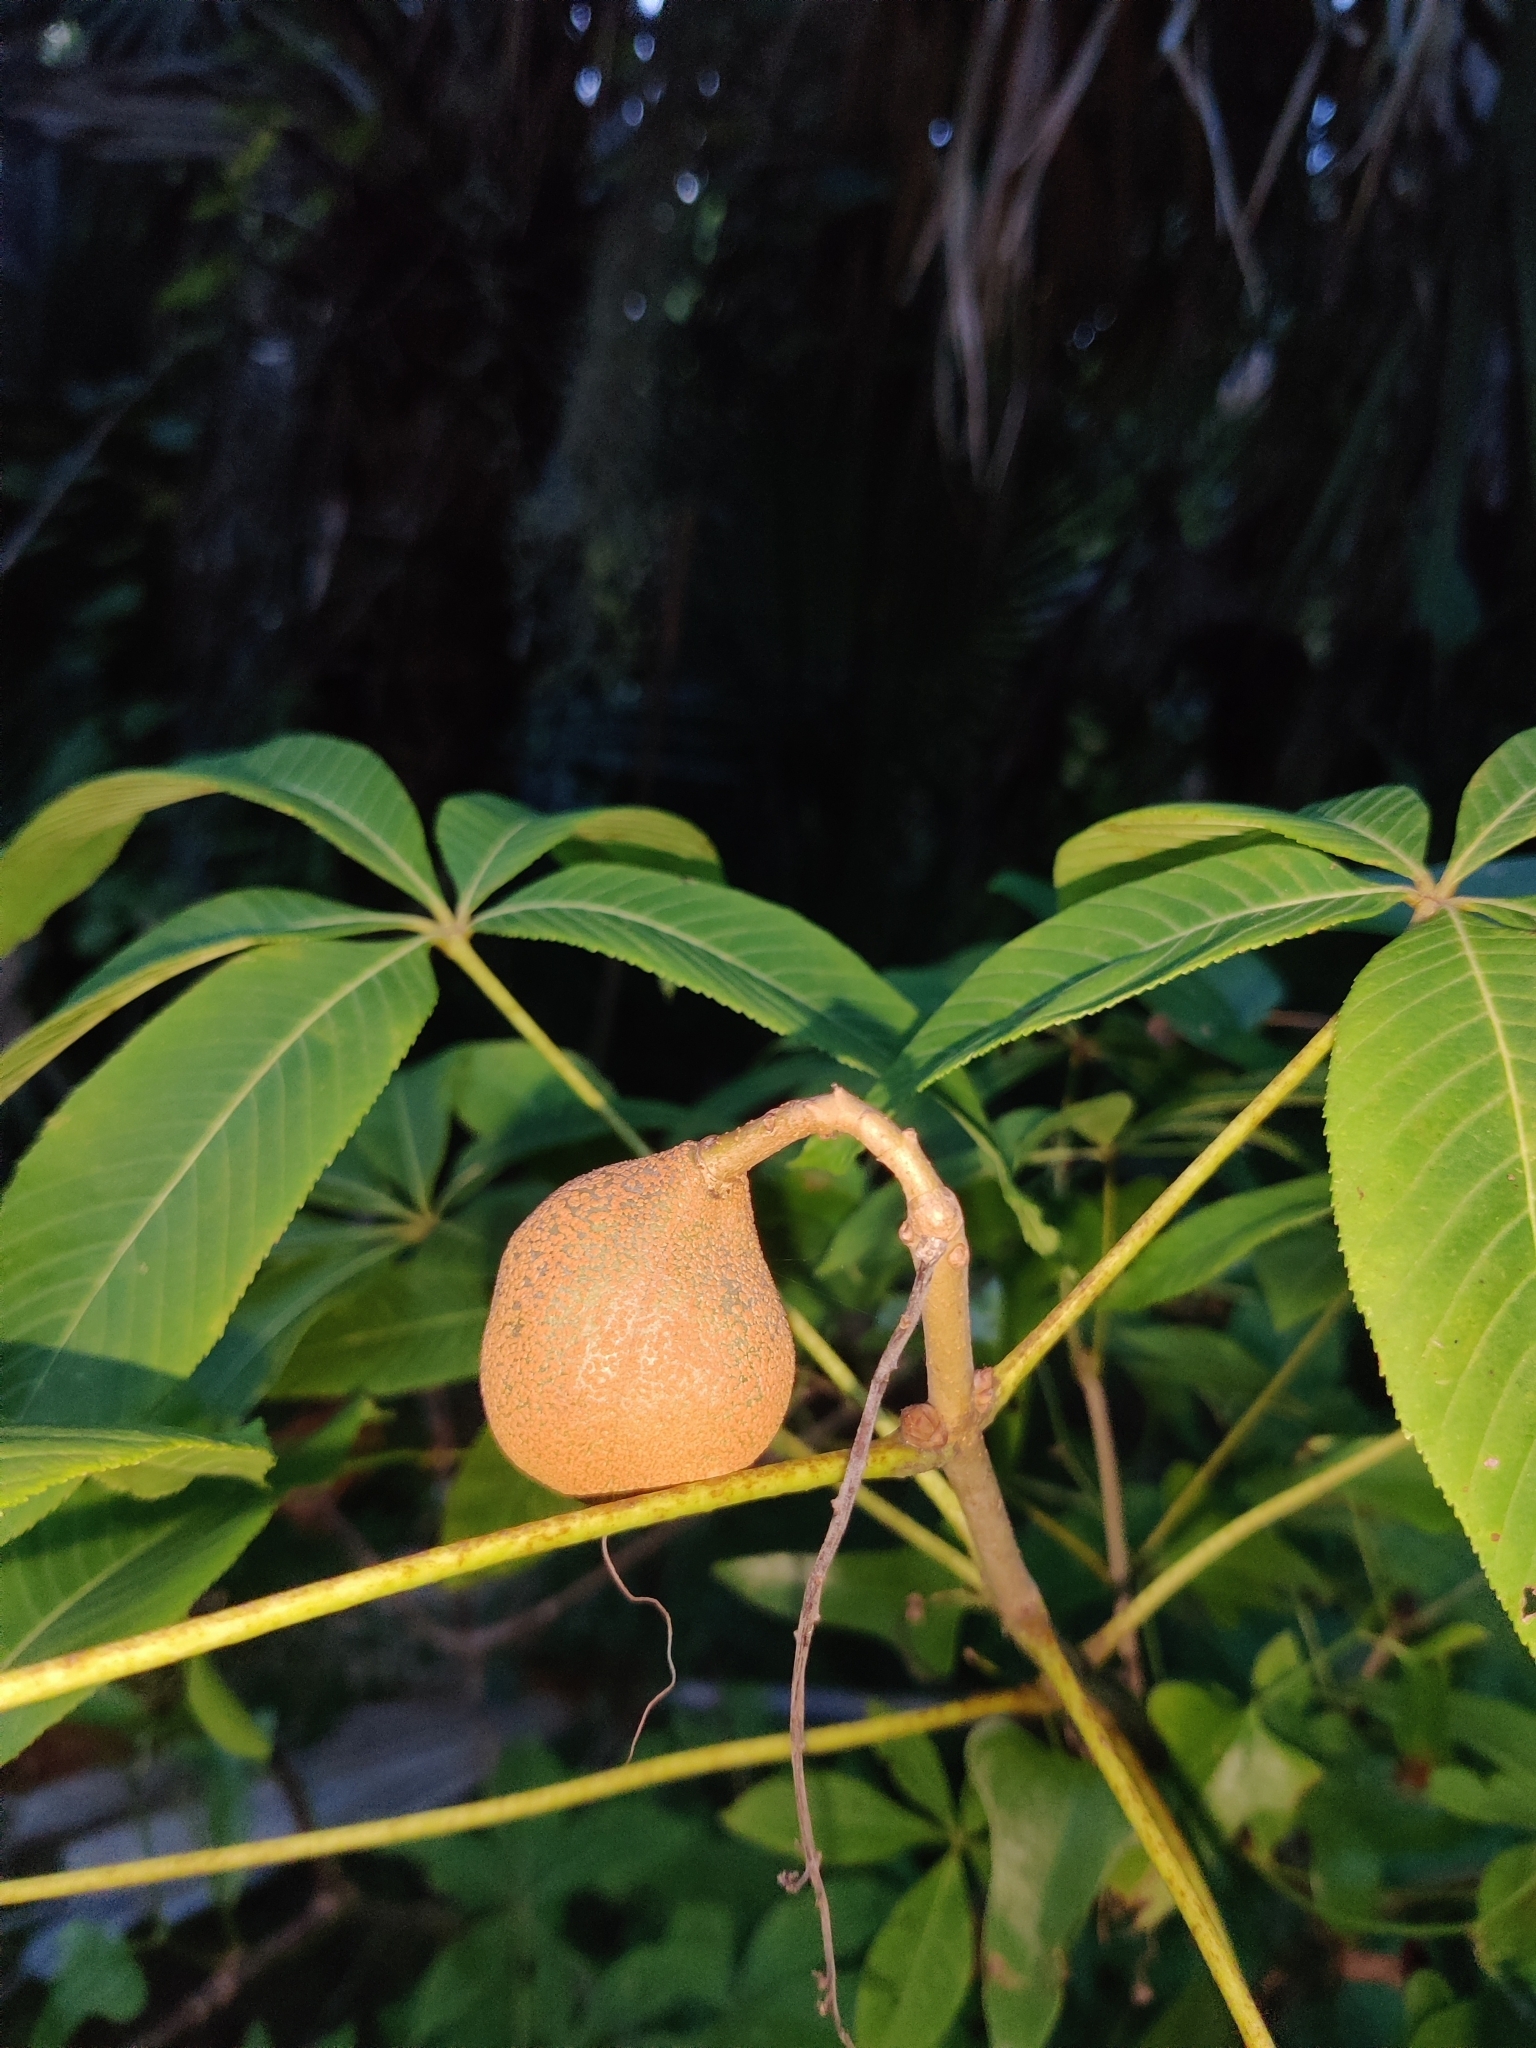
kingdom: Plantae
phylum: Tracheophyta
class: Magnoliopsida
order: Sapindales
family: Sapindaceae
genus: Aesculus
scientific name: Aesculus pavia
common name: Red buckeye
